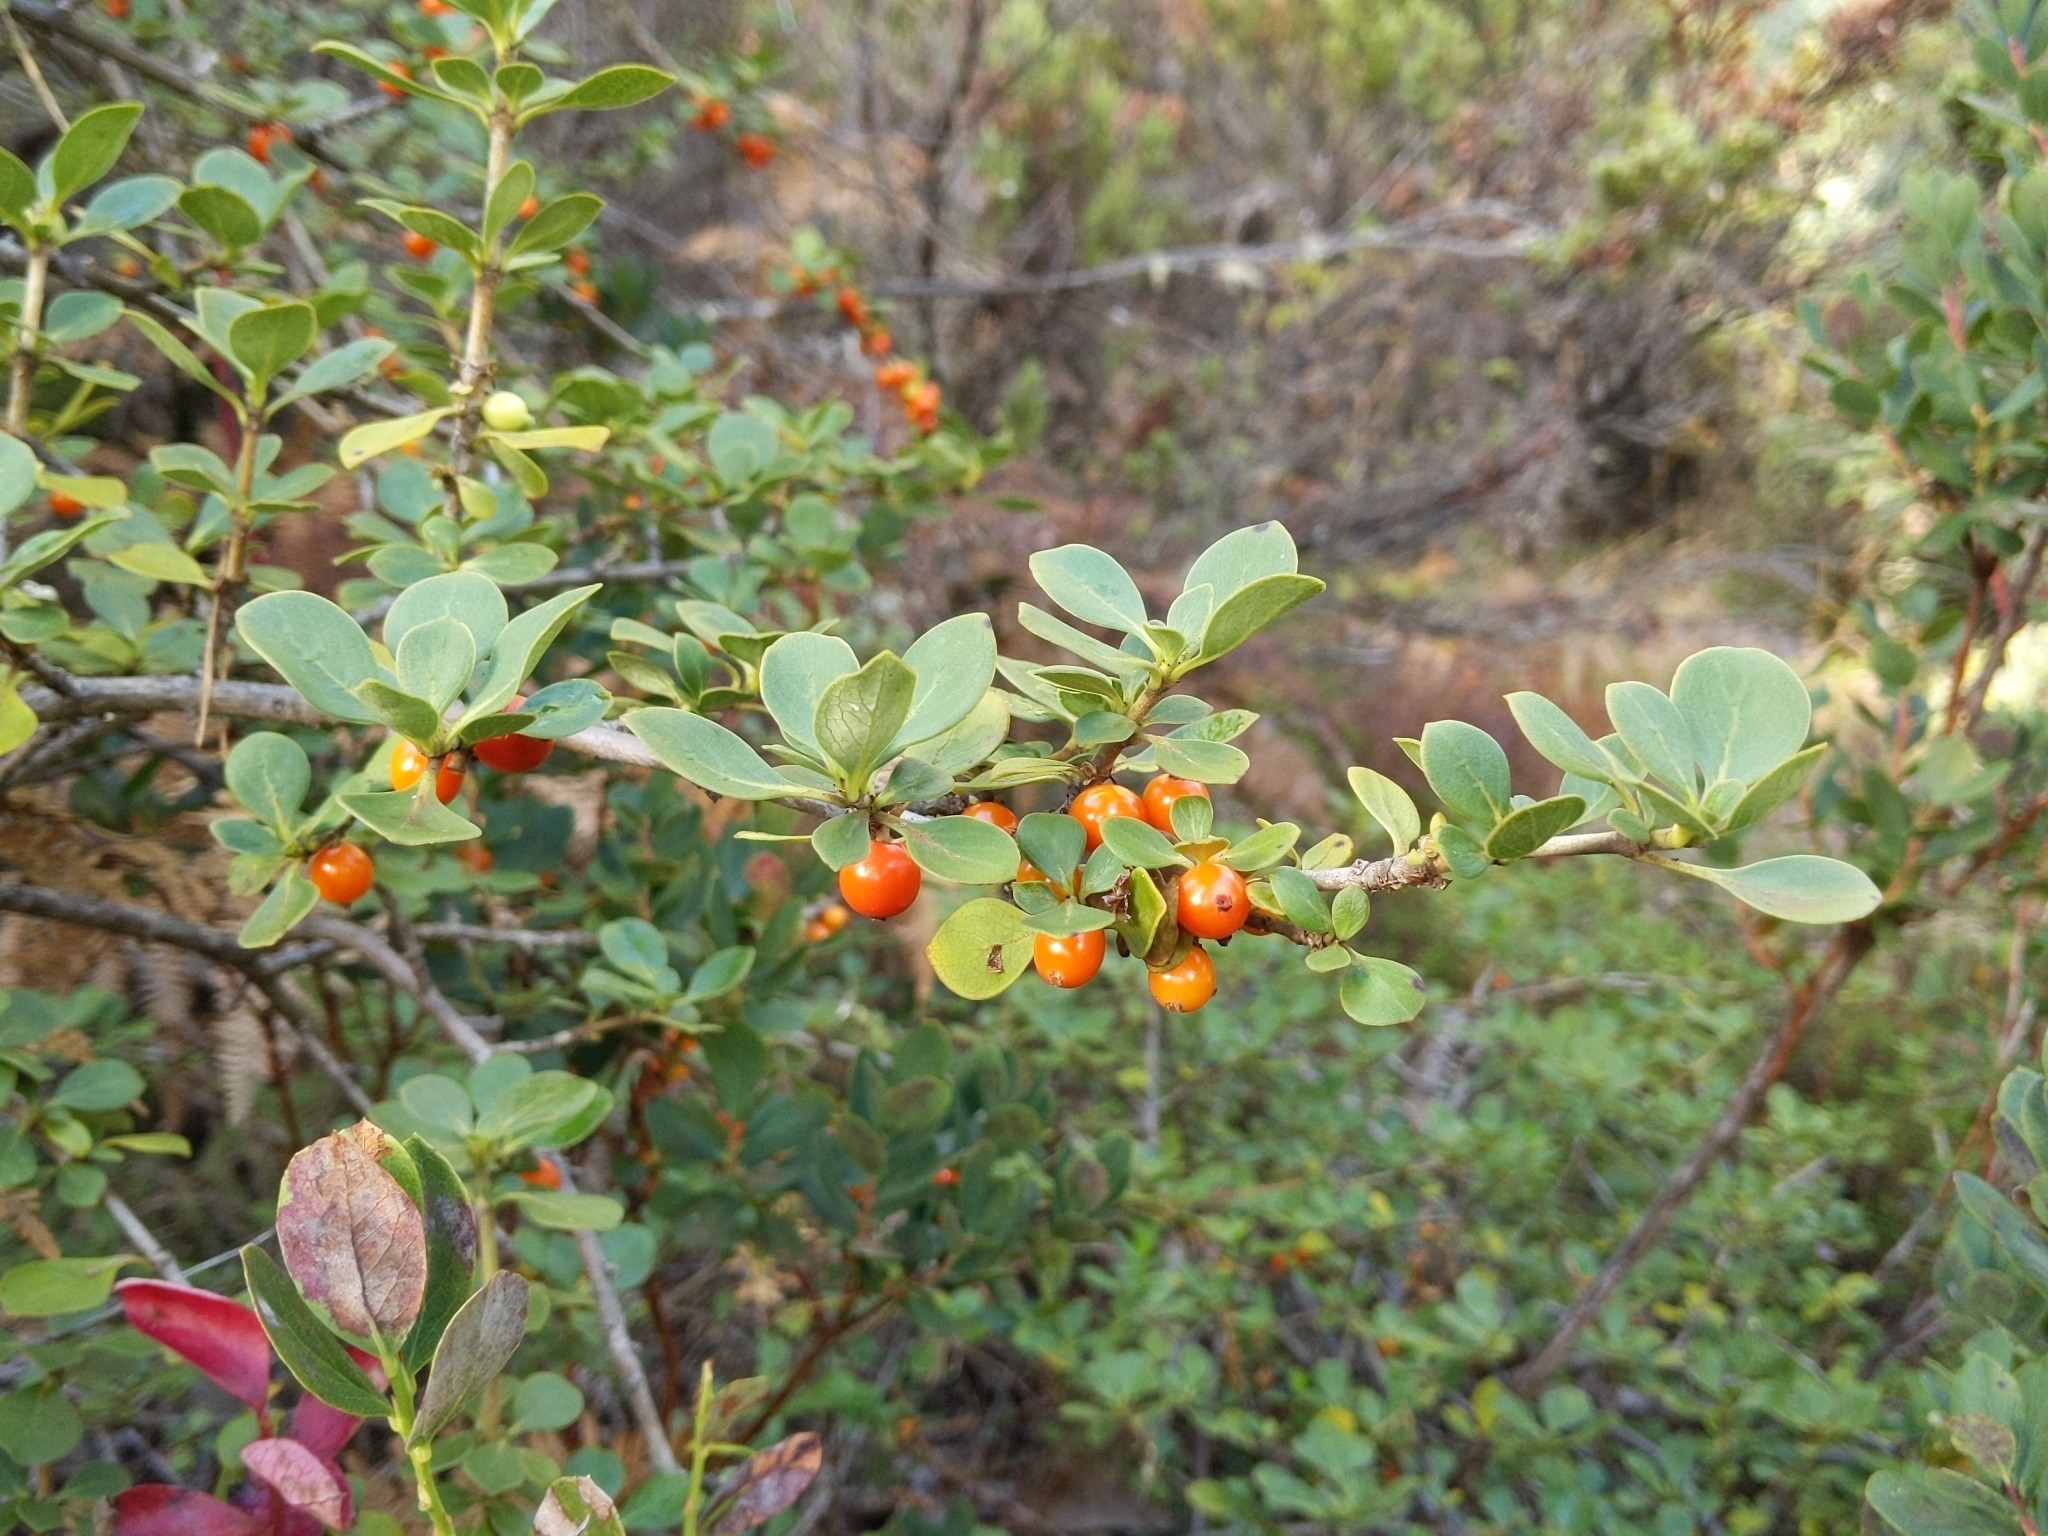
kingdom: Plantae
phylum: Tracheophyta
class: Magnoliopsida
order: Gentianales
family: Rubiaceae
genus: Coprosma
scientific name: Coprosma montana
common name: Alpine mirror plant
